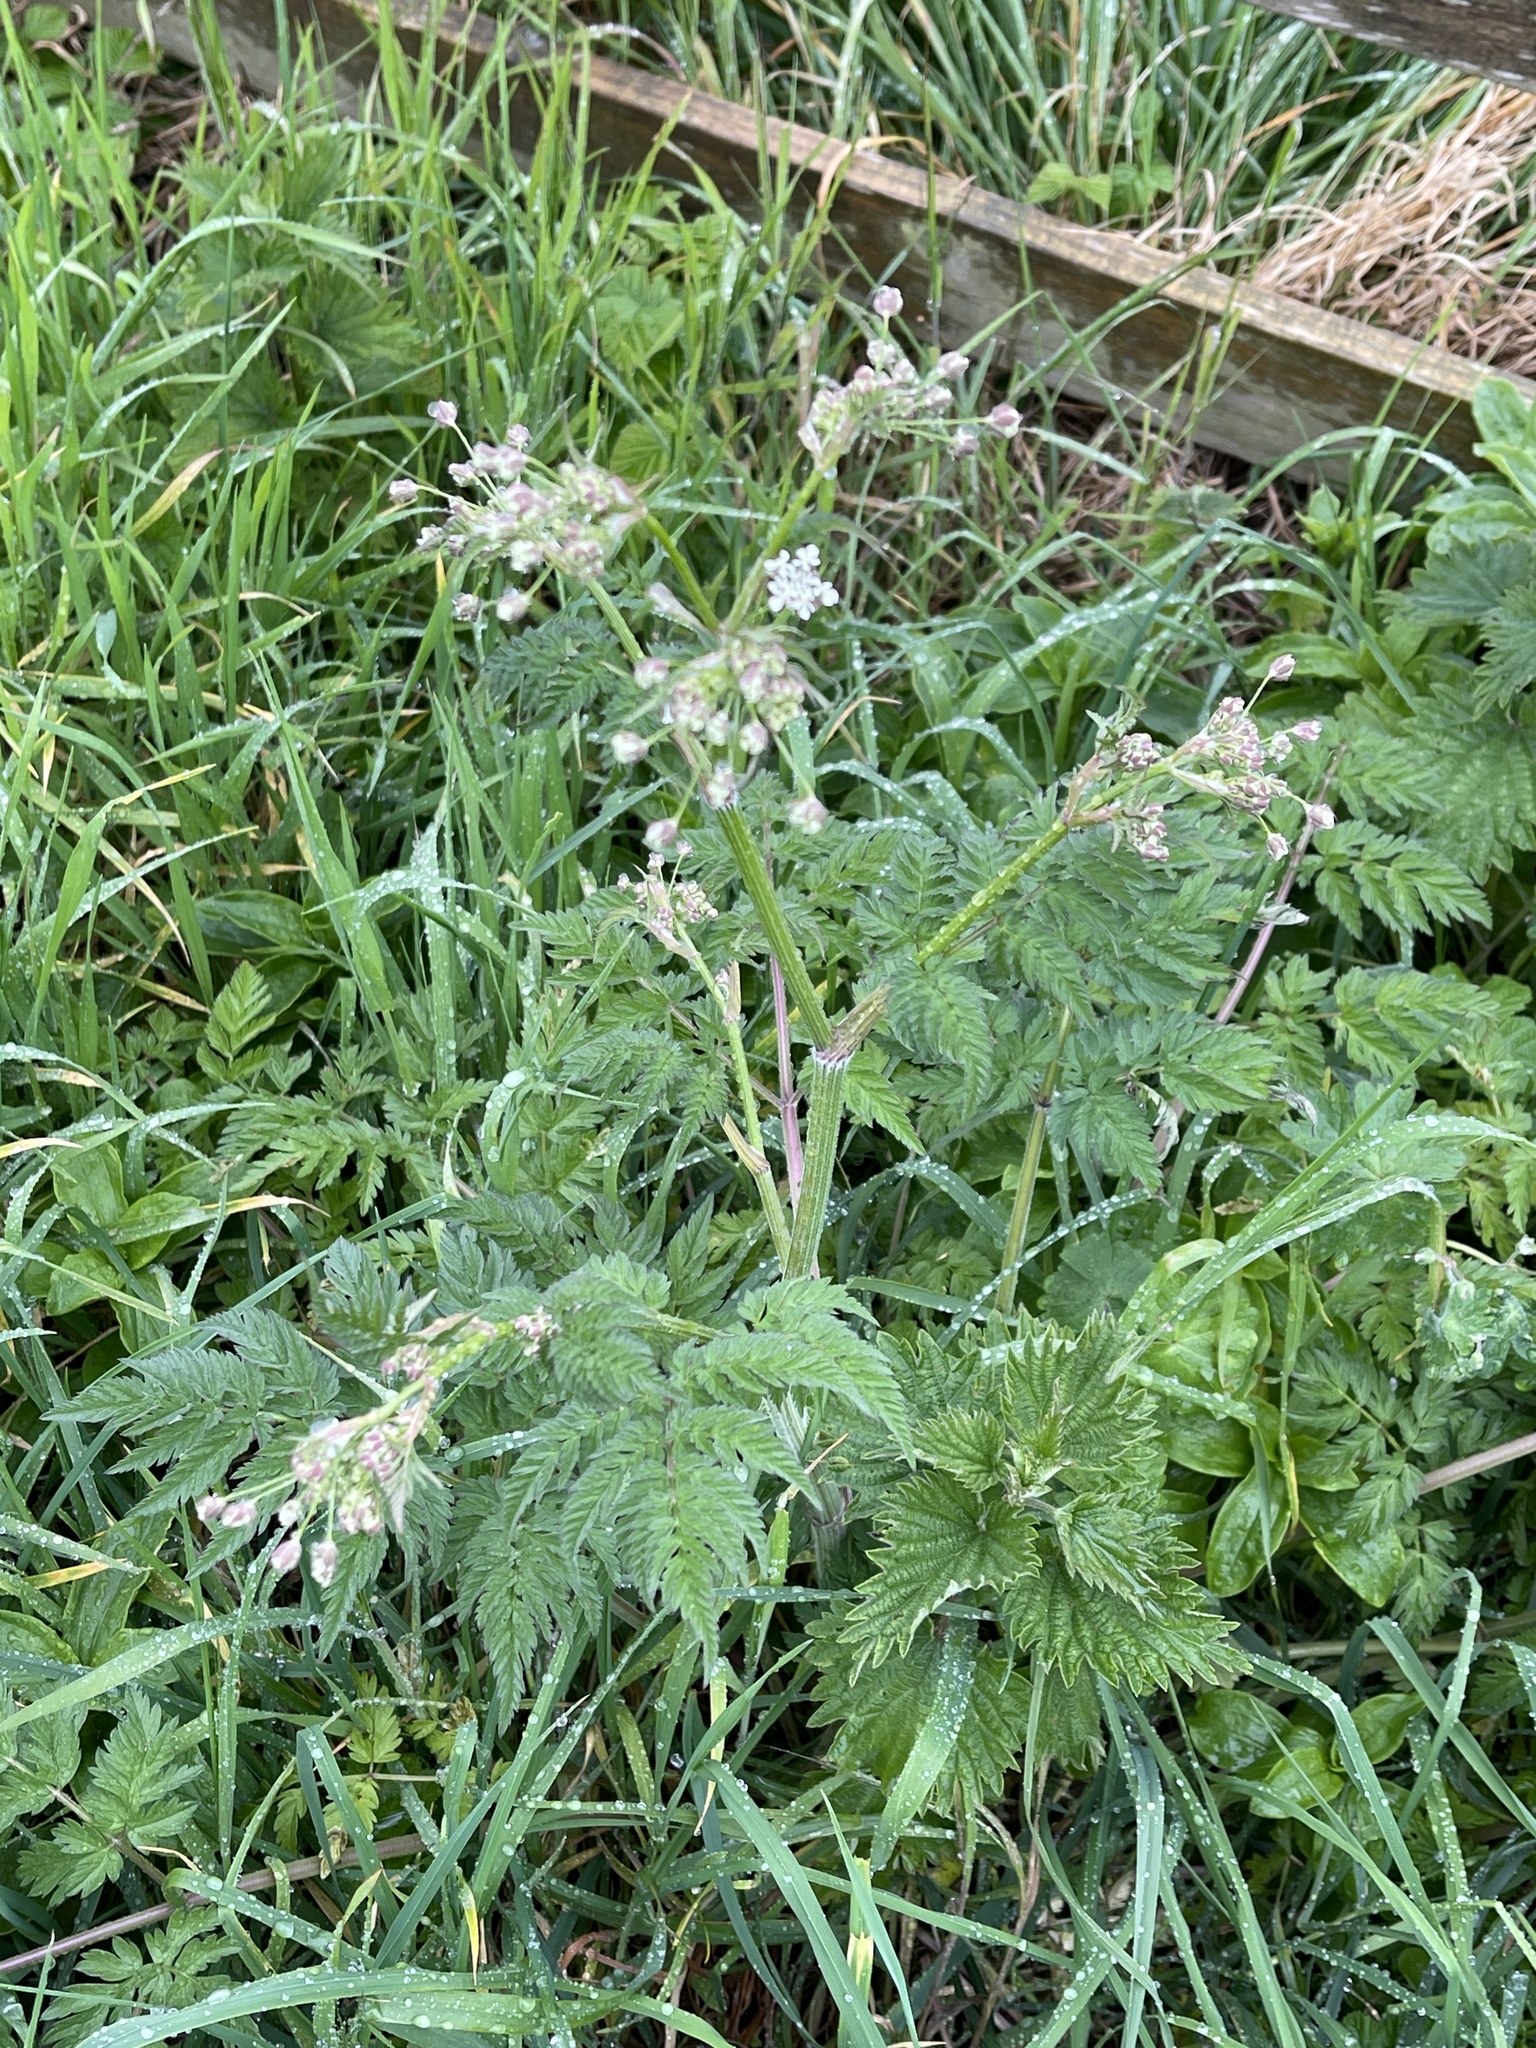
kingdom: Plantae
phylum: Tracheophyta
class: Magnoliopsida
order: Apiales
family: Apiaceae
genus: Anthriscus
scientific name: Anthriscus sylvestris
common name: Cow parsley
